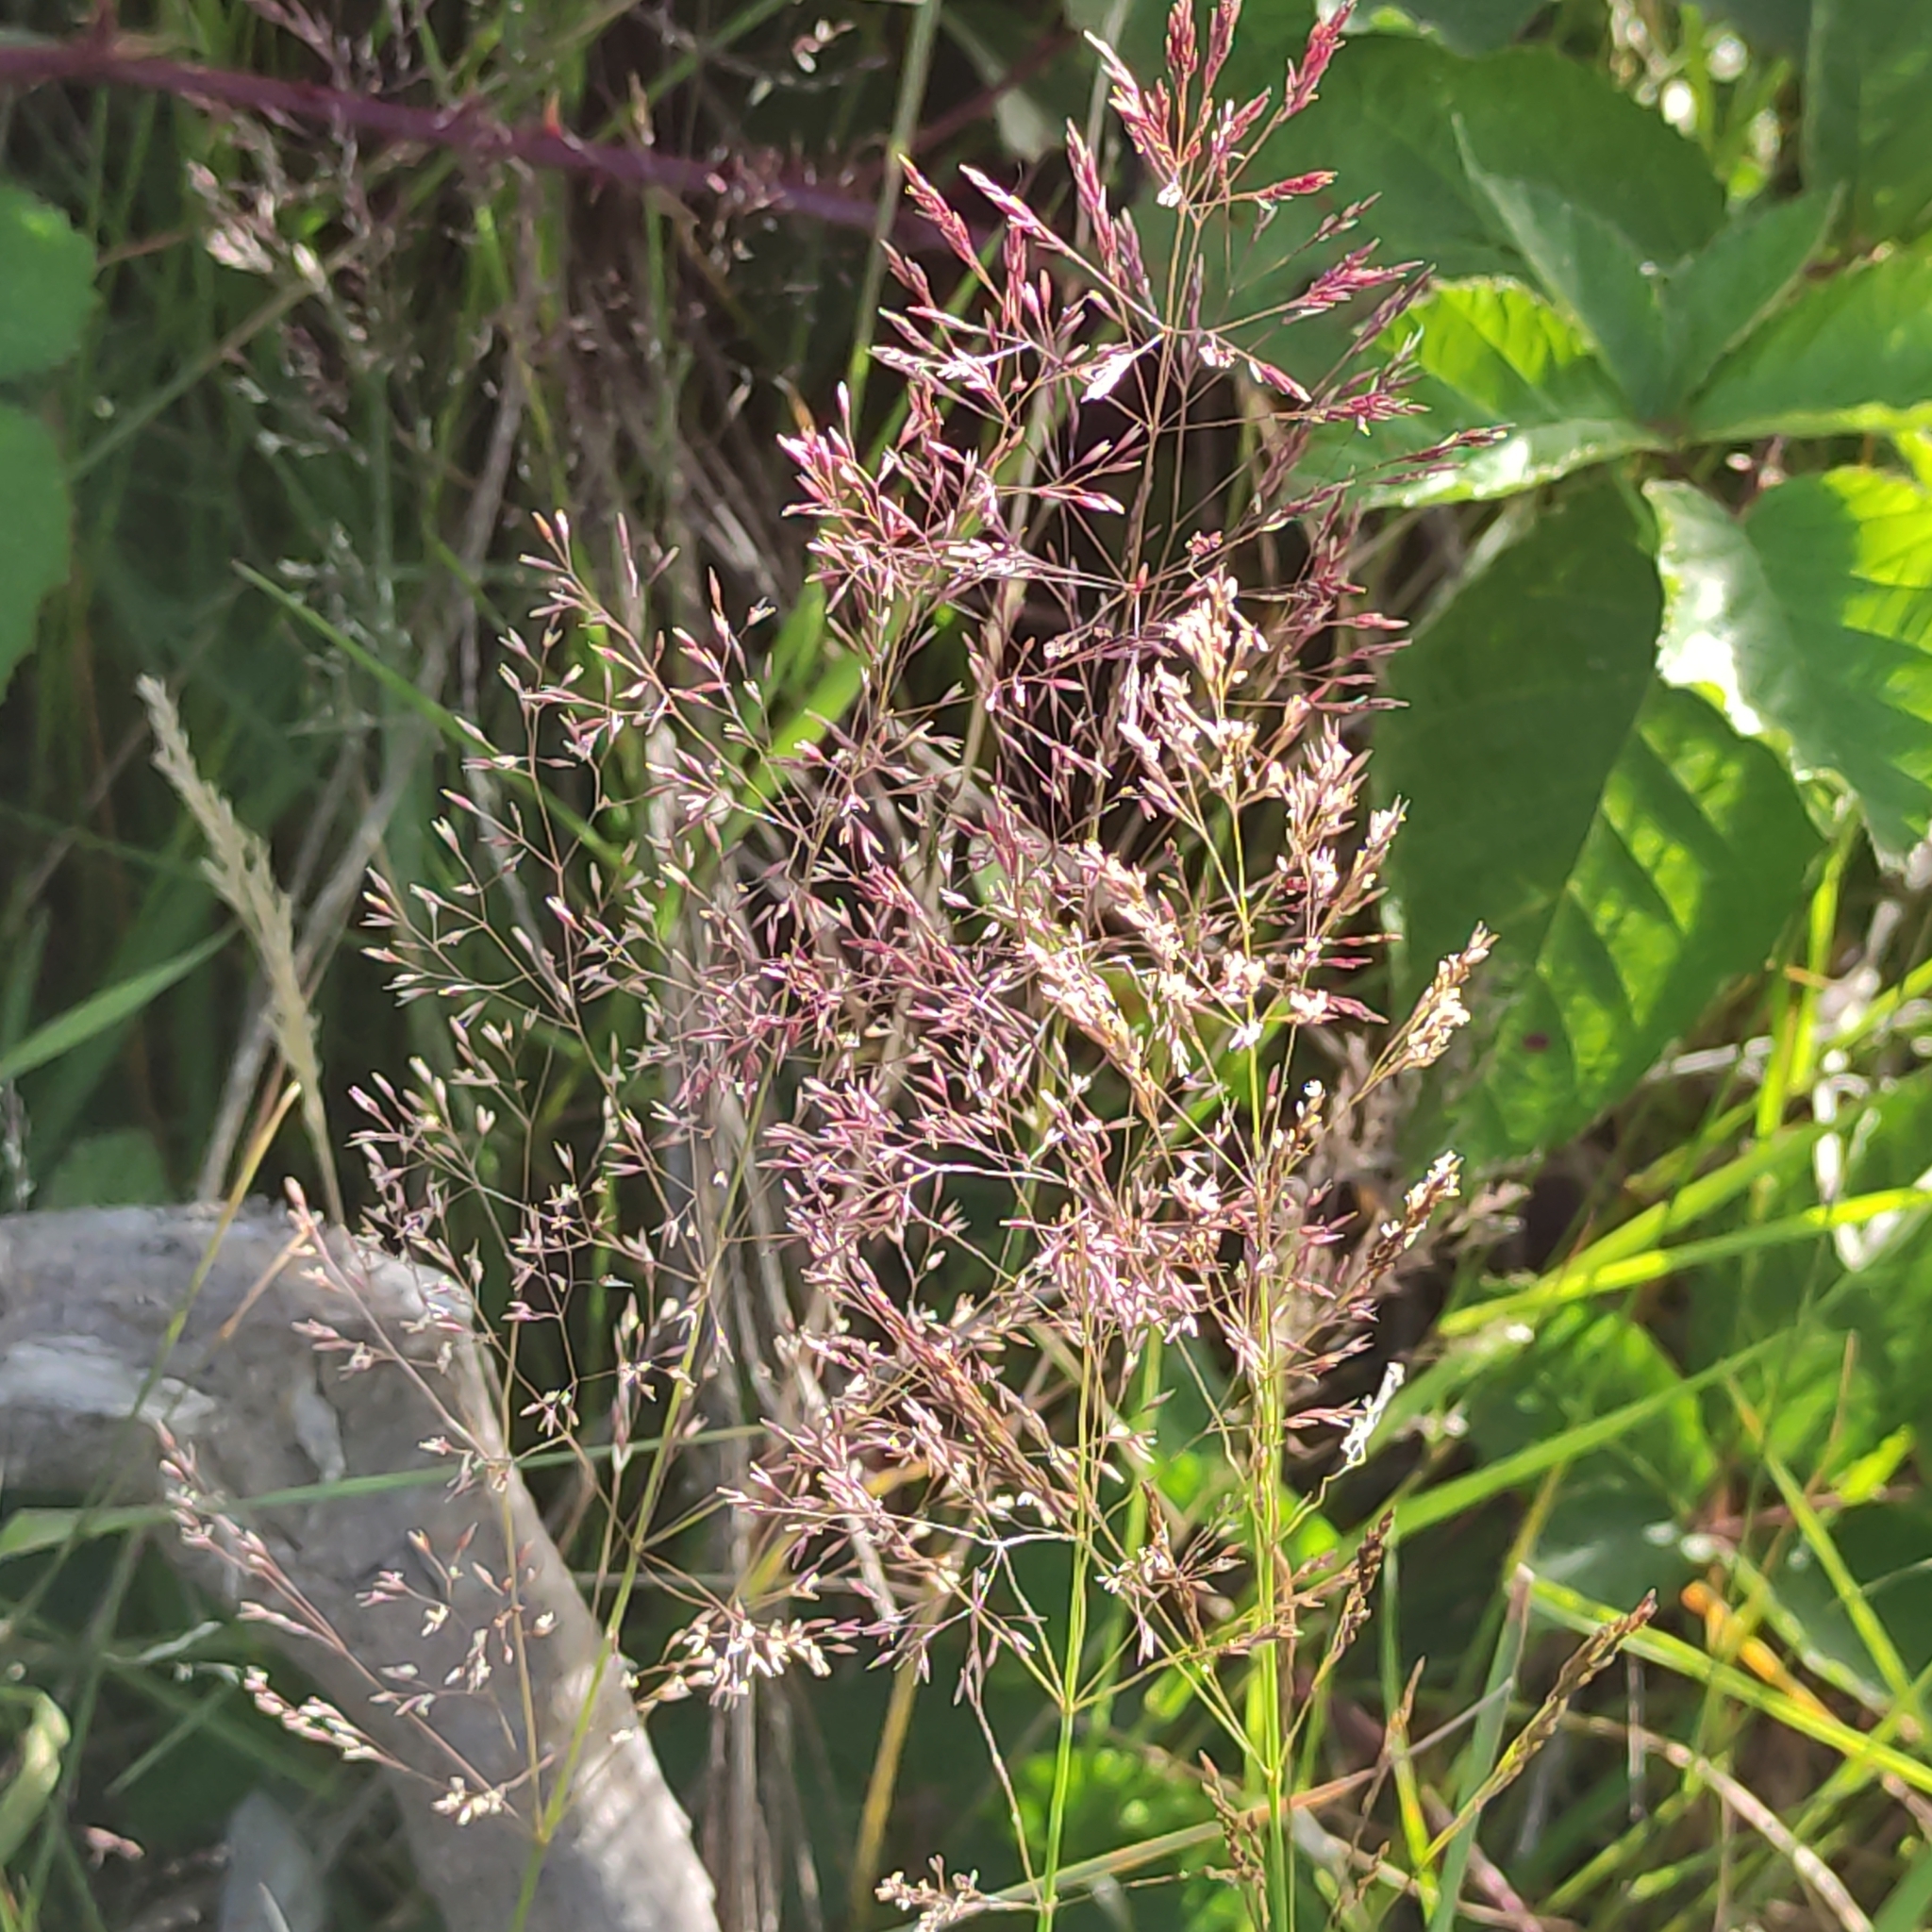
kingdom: Plantae
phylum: Tracheophyta
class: Liliopsida
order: Poales
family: Poaceae
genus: Agrostis
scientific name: Agrostis capillaris
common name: Colonial bentgrass
